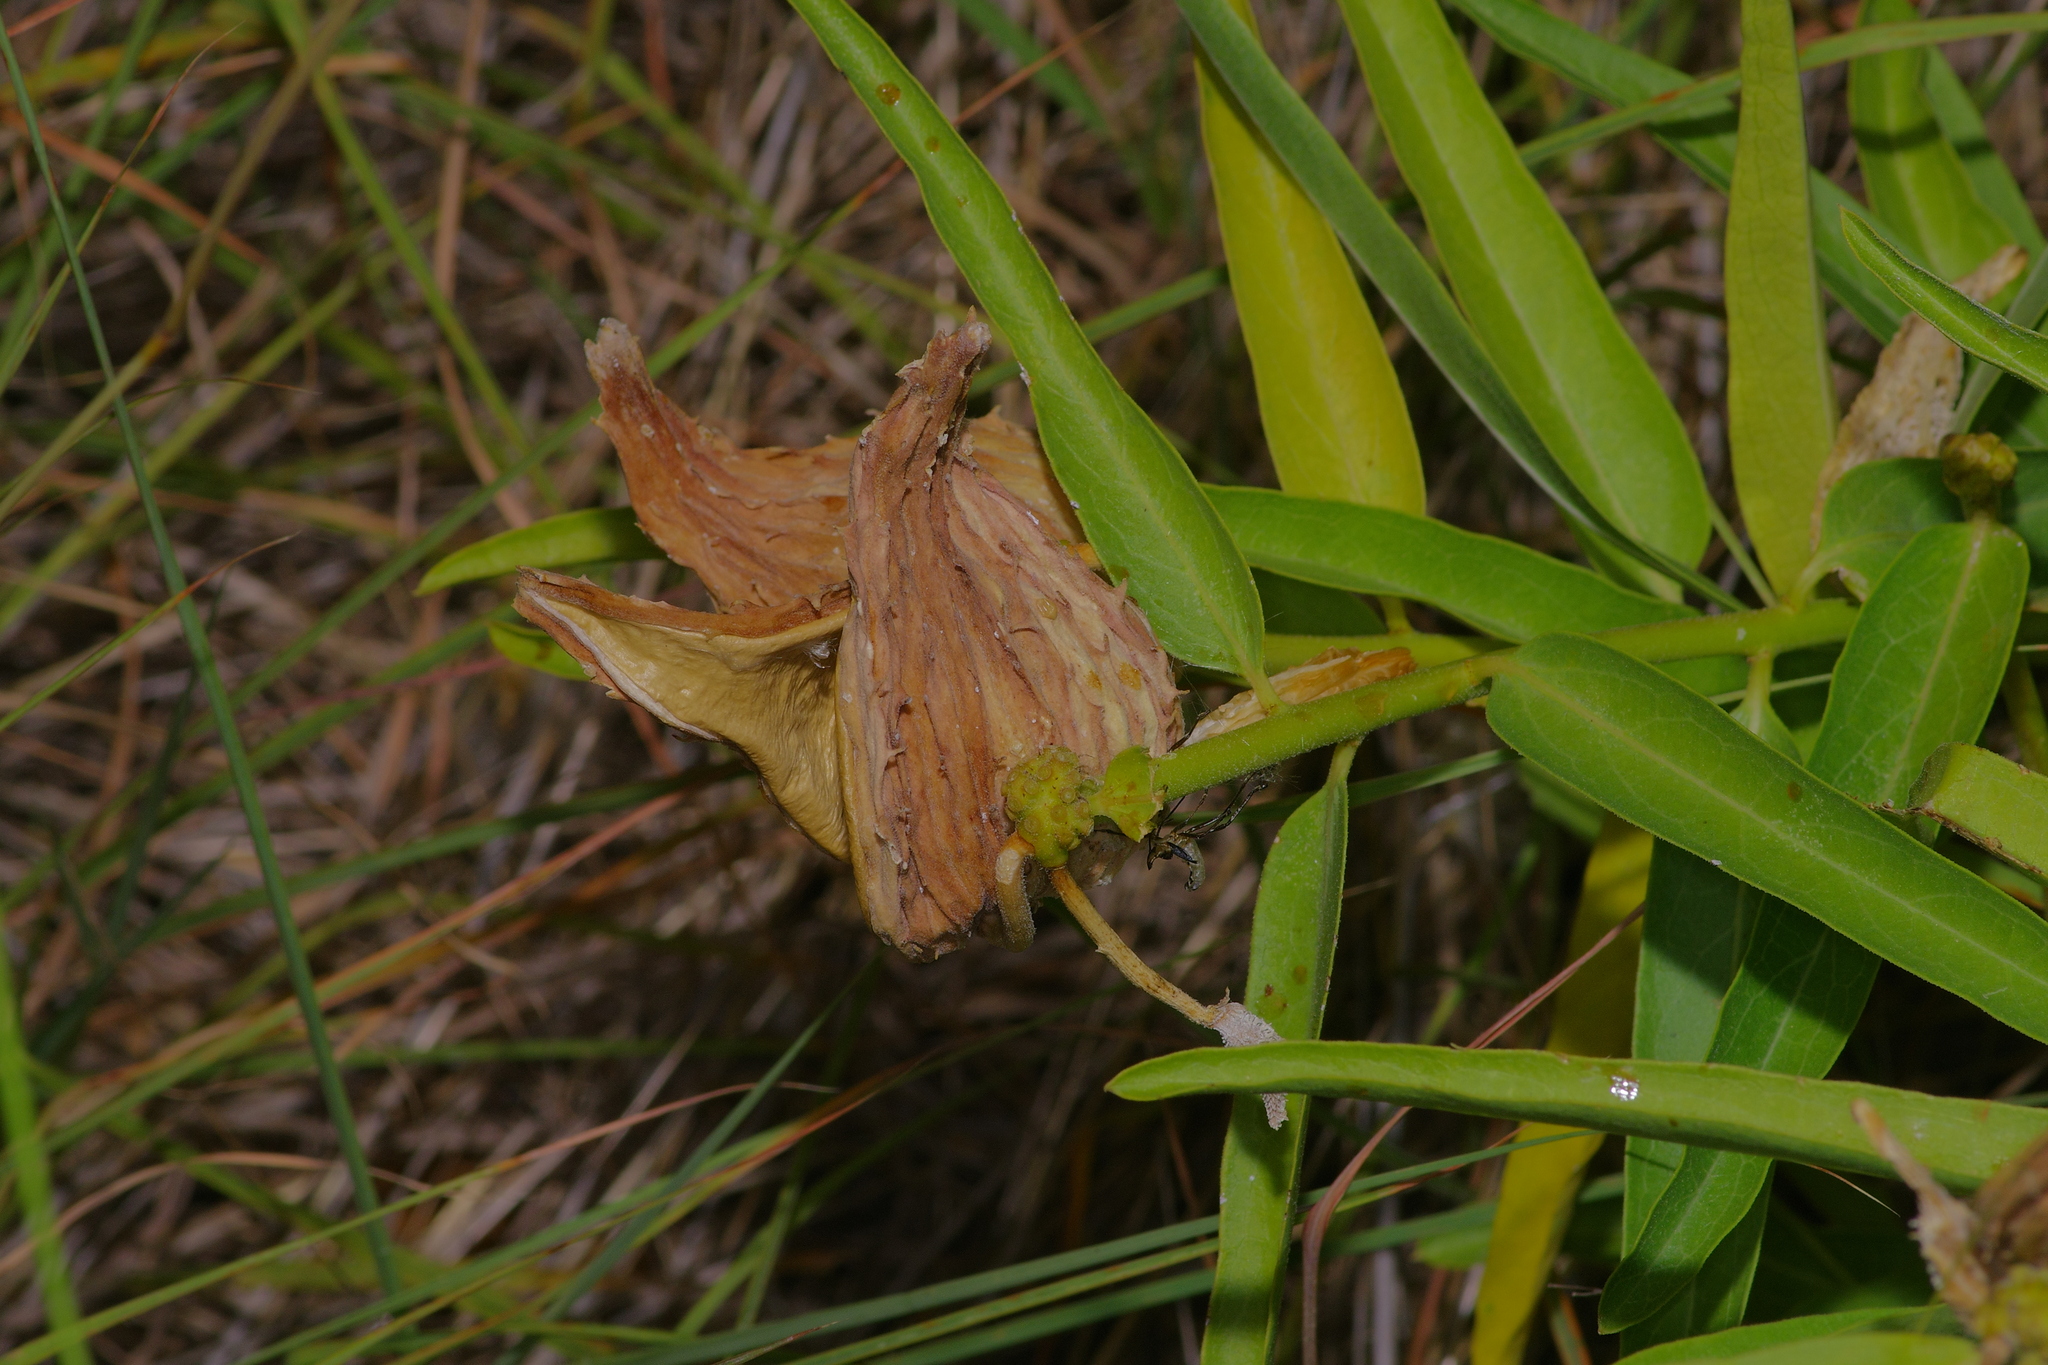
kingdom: Plantae
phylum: Tracheophyta
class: Magnoliopsida
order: Gentianales
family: Apocynaceae
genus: Asclepias
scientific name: Asclepias asperula
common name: Antelope horns
